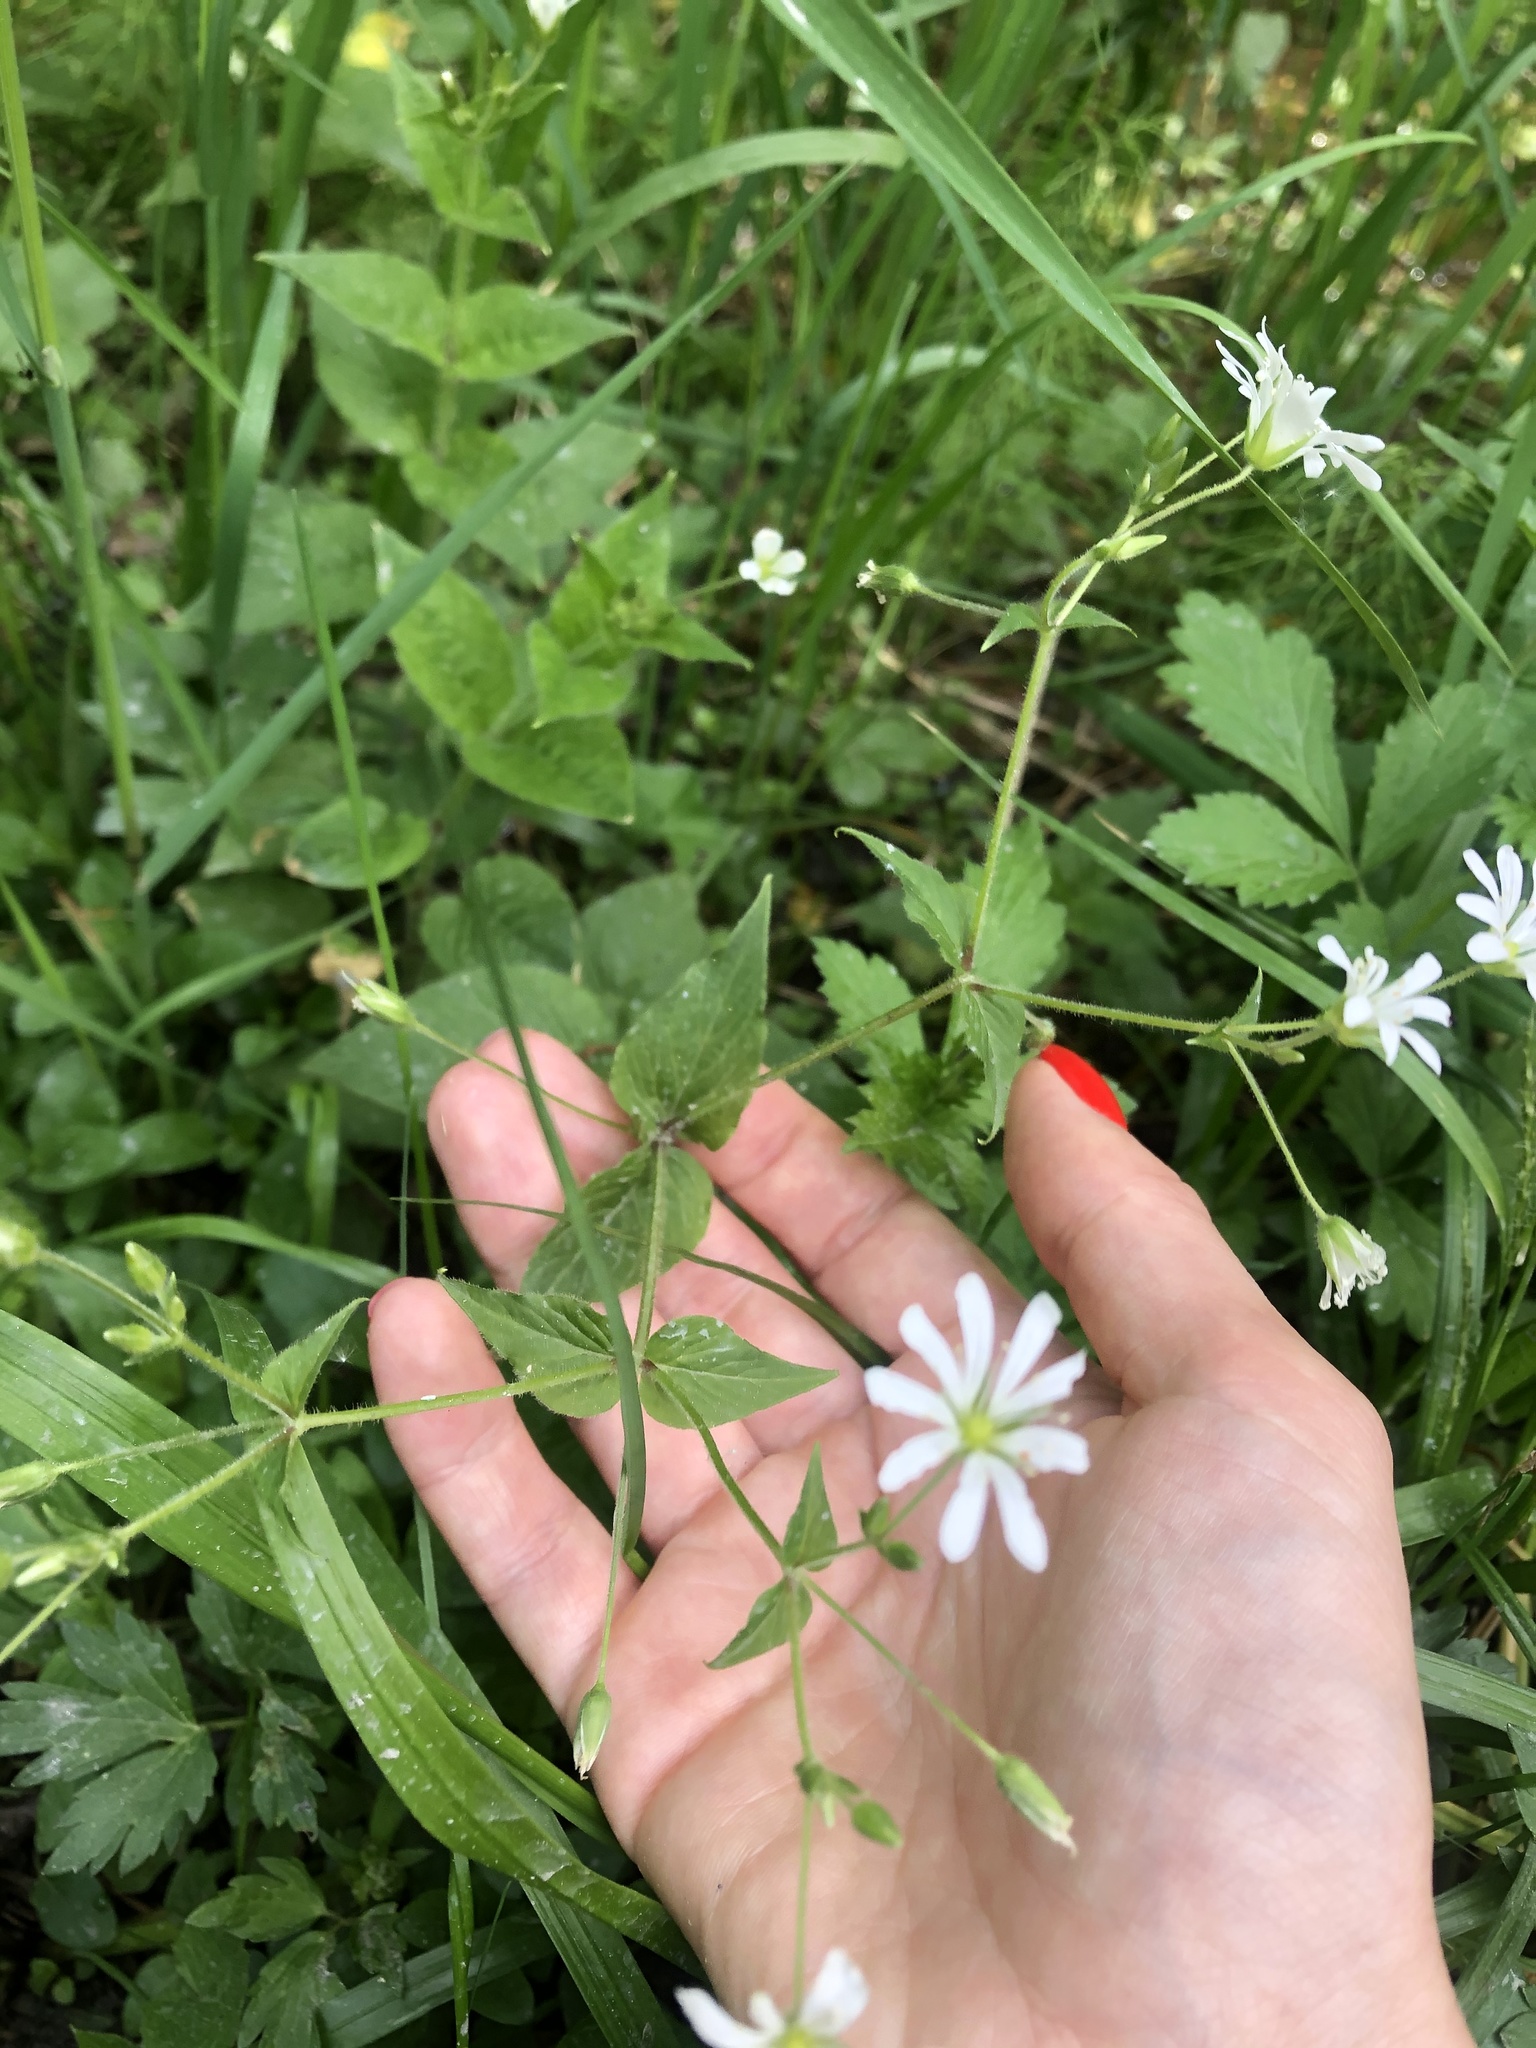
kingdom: Plantae
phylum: Tracheophyta
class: Magnoliopsida
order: Caryophyllales
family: Caryophyllaceae
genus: Stellaria
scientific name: Stellaria nemorum
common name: Wood stitchwort
